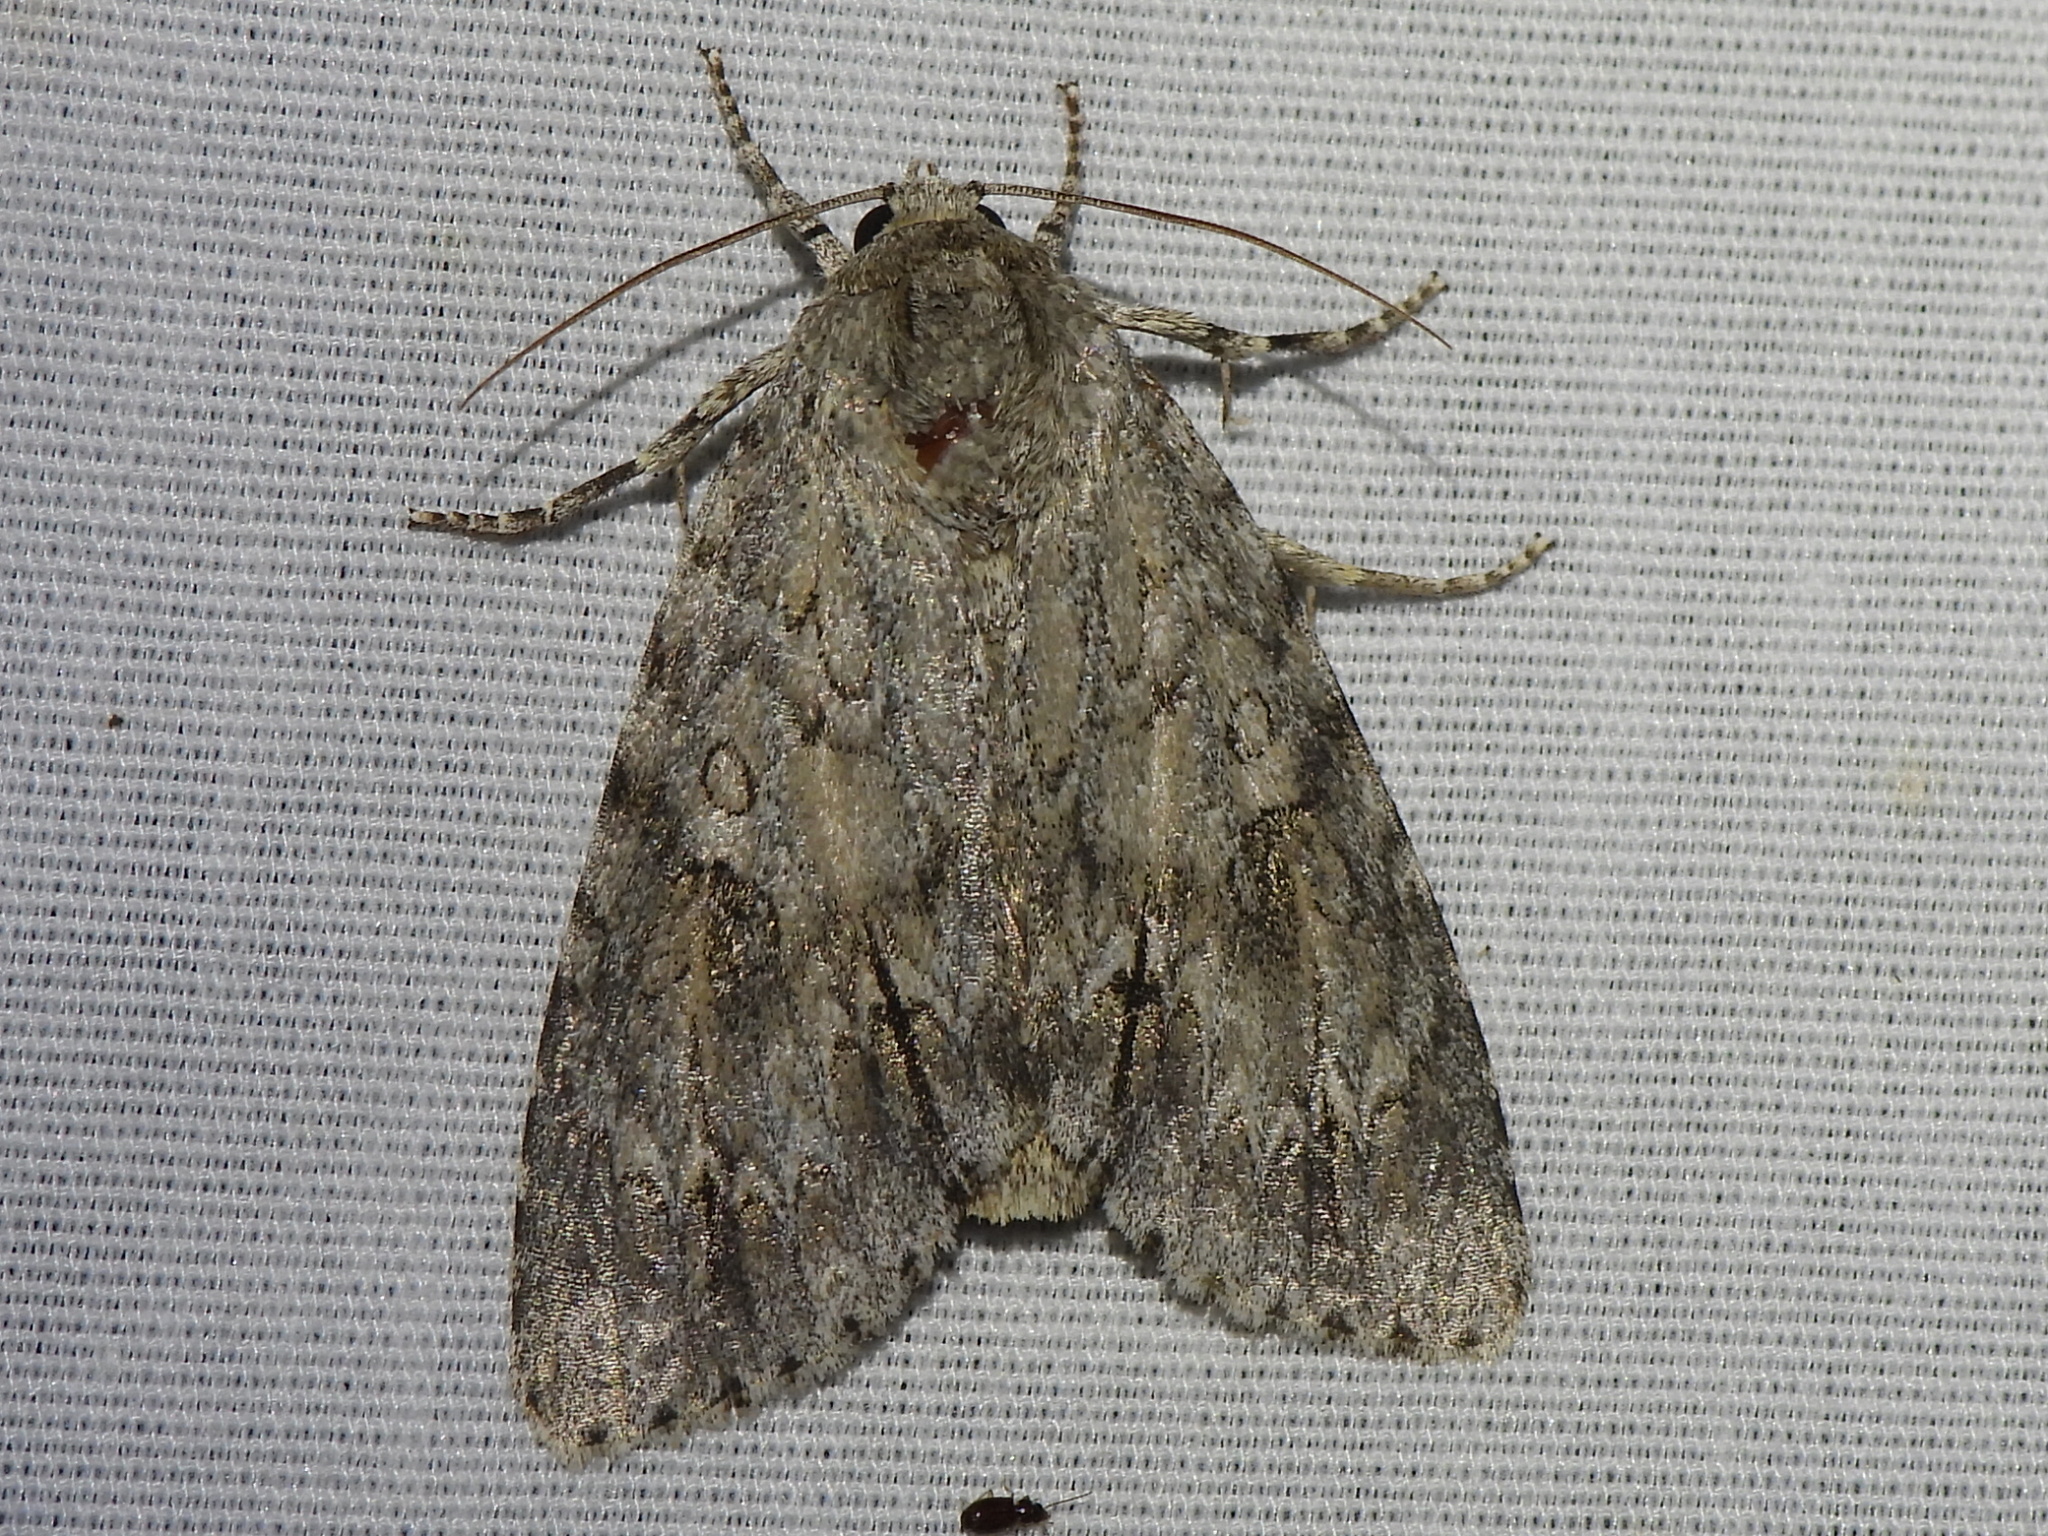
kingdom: Animalia
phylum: Arthropoda
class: Insecta
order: Lepidoptera
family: Noctuidae
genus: Acronicta
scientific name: Acronicta americana
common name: American dagger
